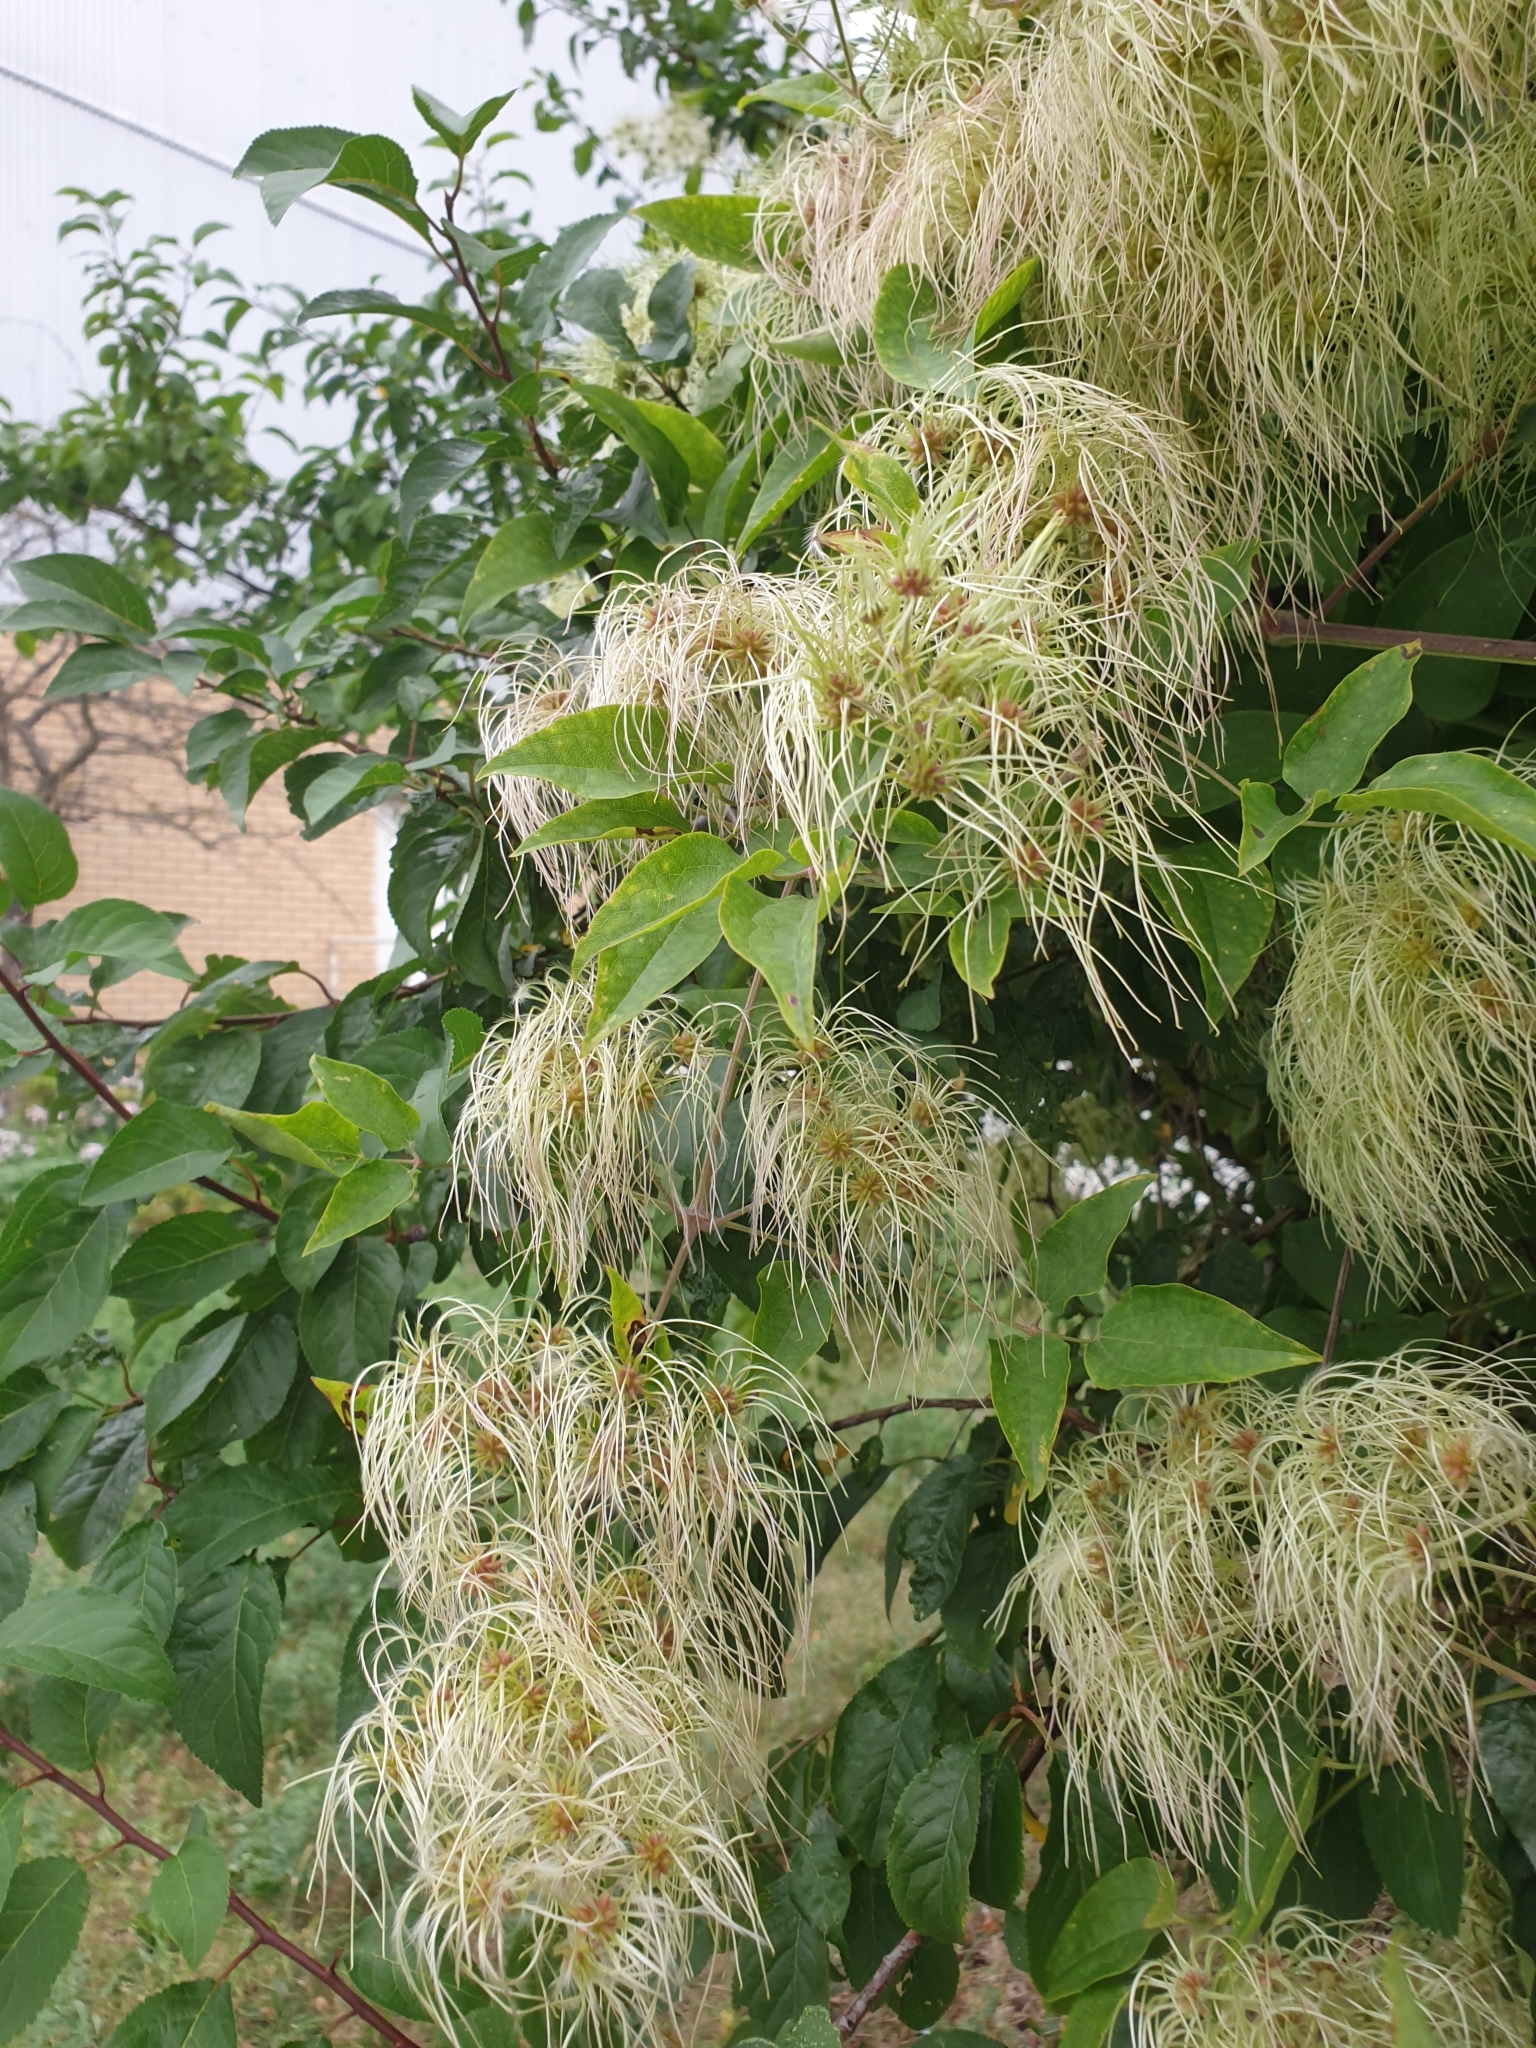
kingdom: Plantae
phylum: Tracheophyta
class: Magnoliopsida
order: Ranunculales
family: Ranunculaceae
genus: Clematis
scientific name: Clematis vitalba
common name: Evergreen clematis
